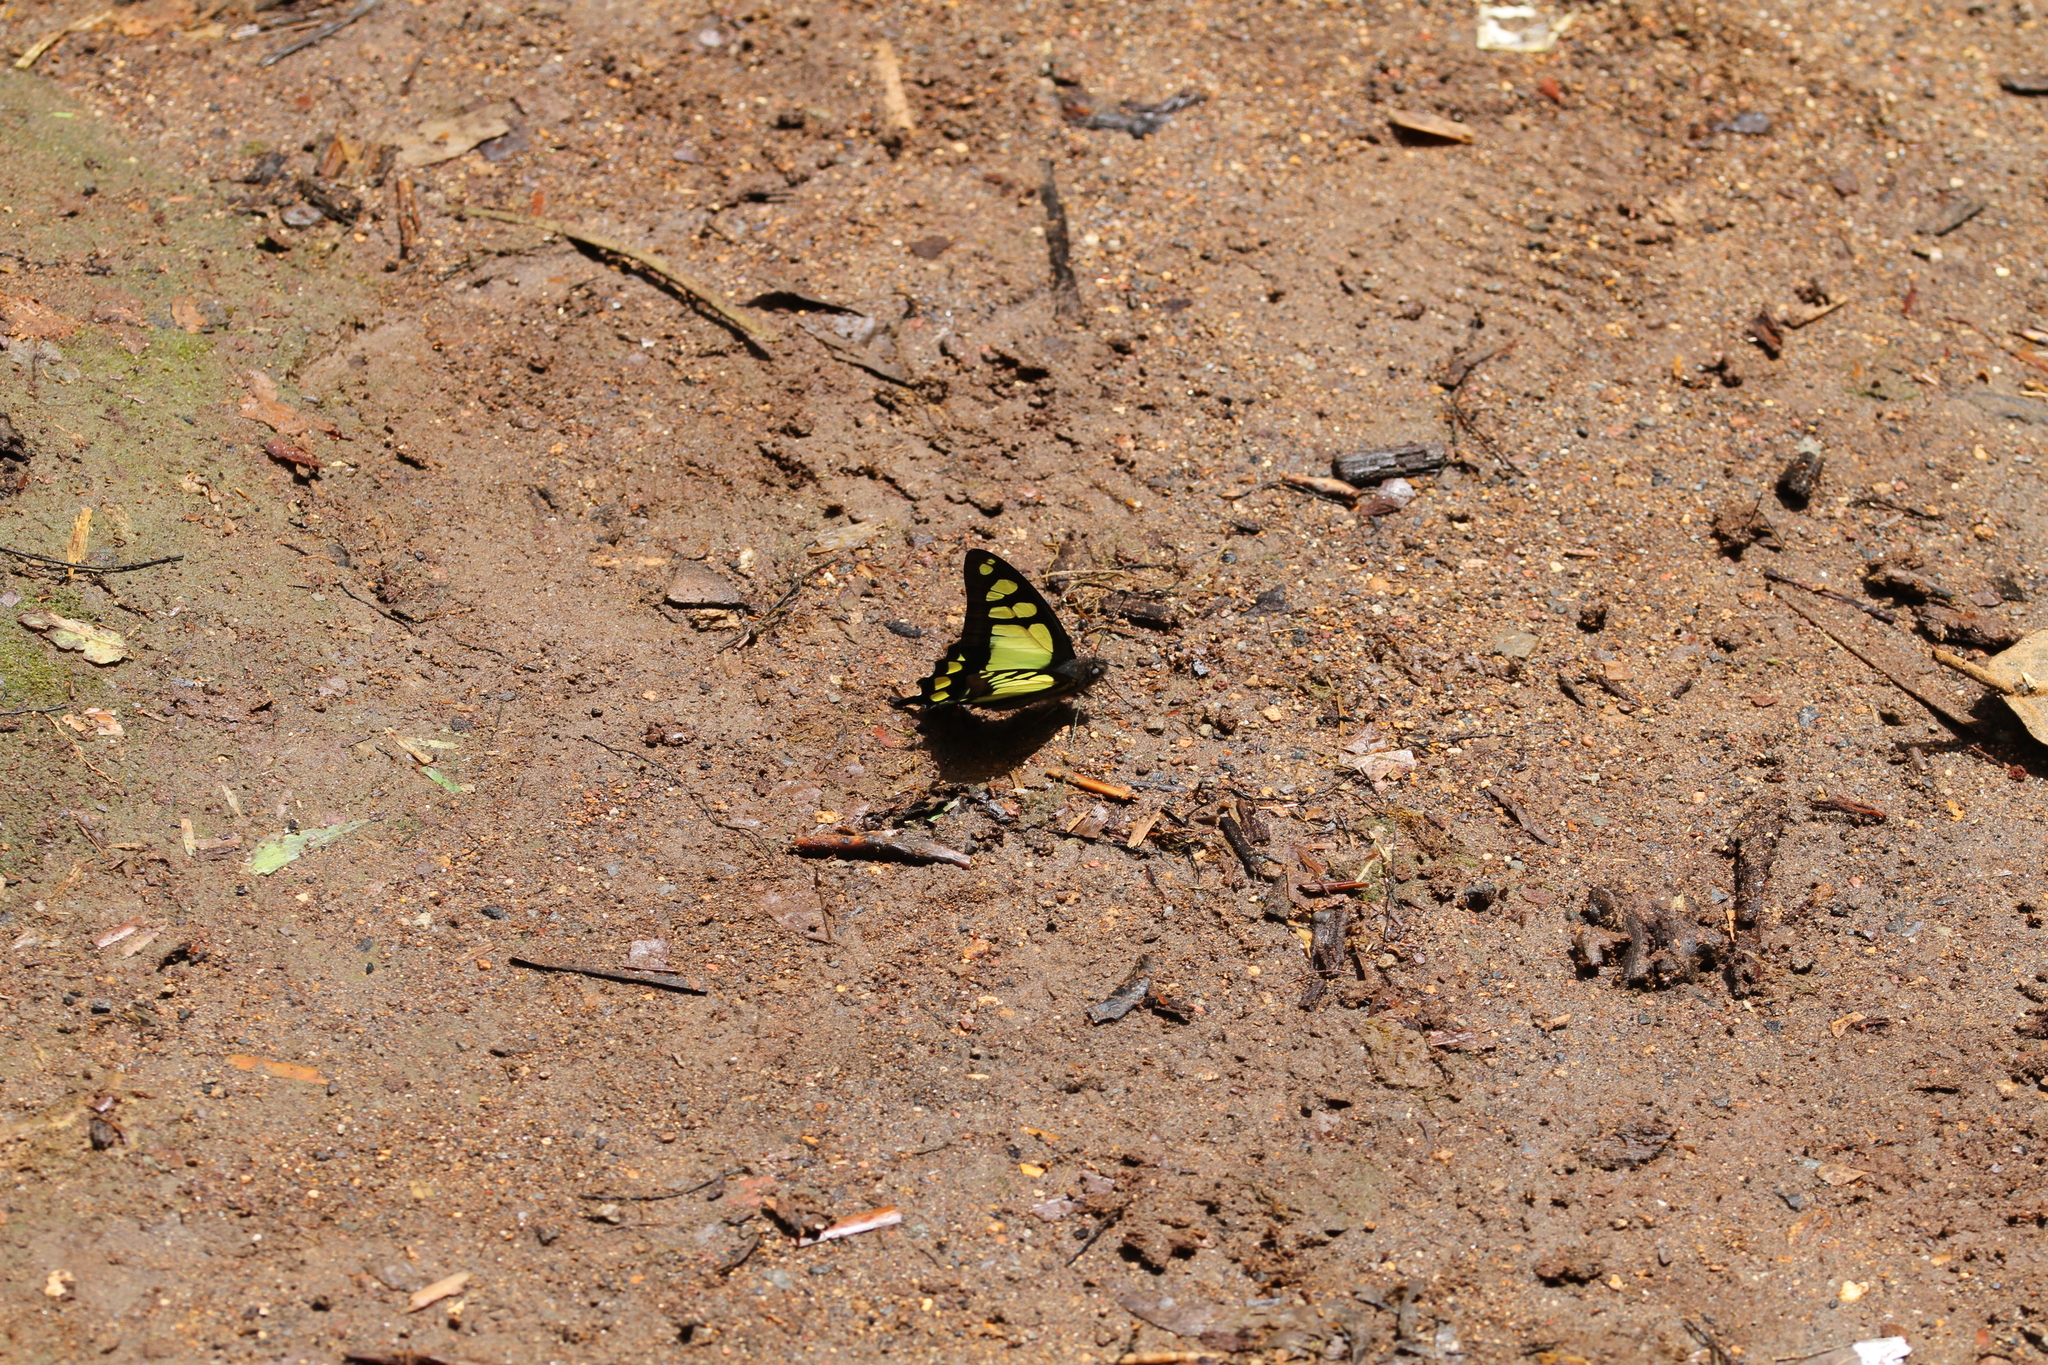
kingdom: Animalia
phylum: Arthropoda
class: Insecta
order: Lepidoptera
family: Papilionidae
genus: Graphium
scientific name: Graphium cloanthus
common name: Glassy bluebottle
